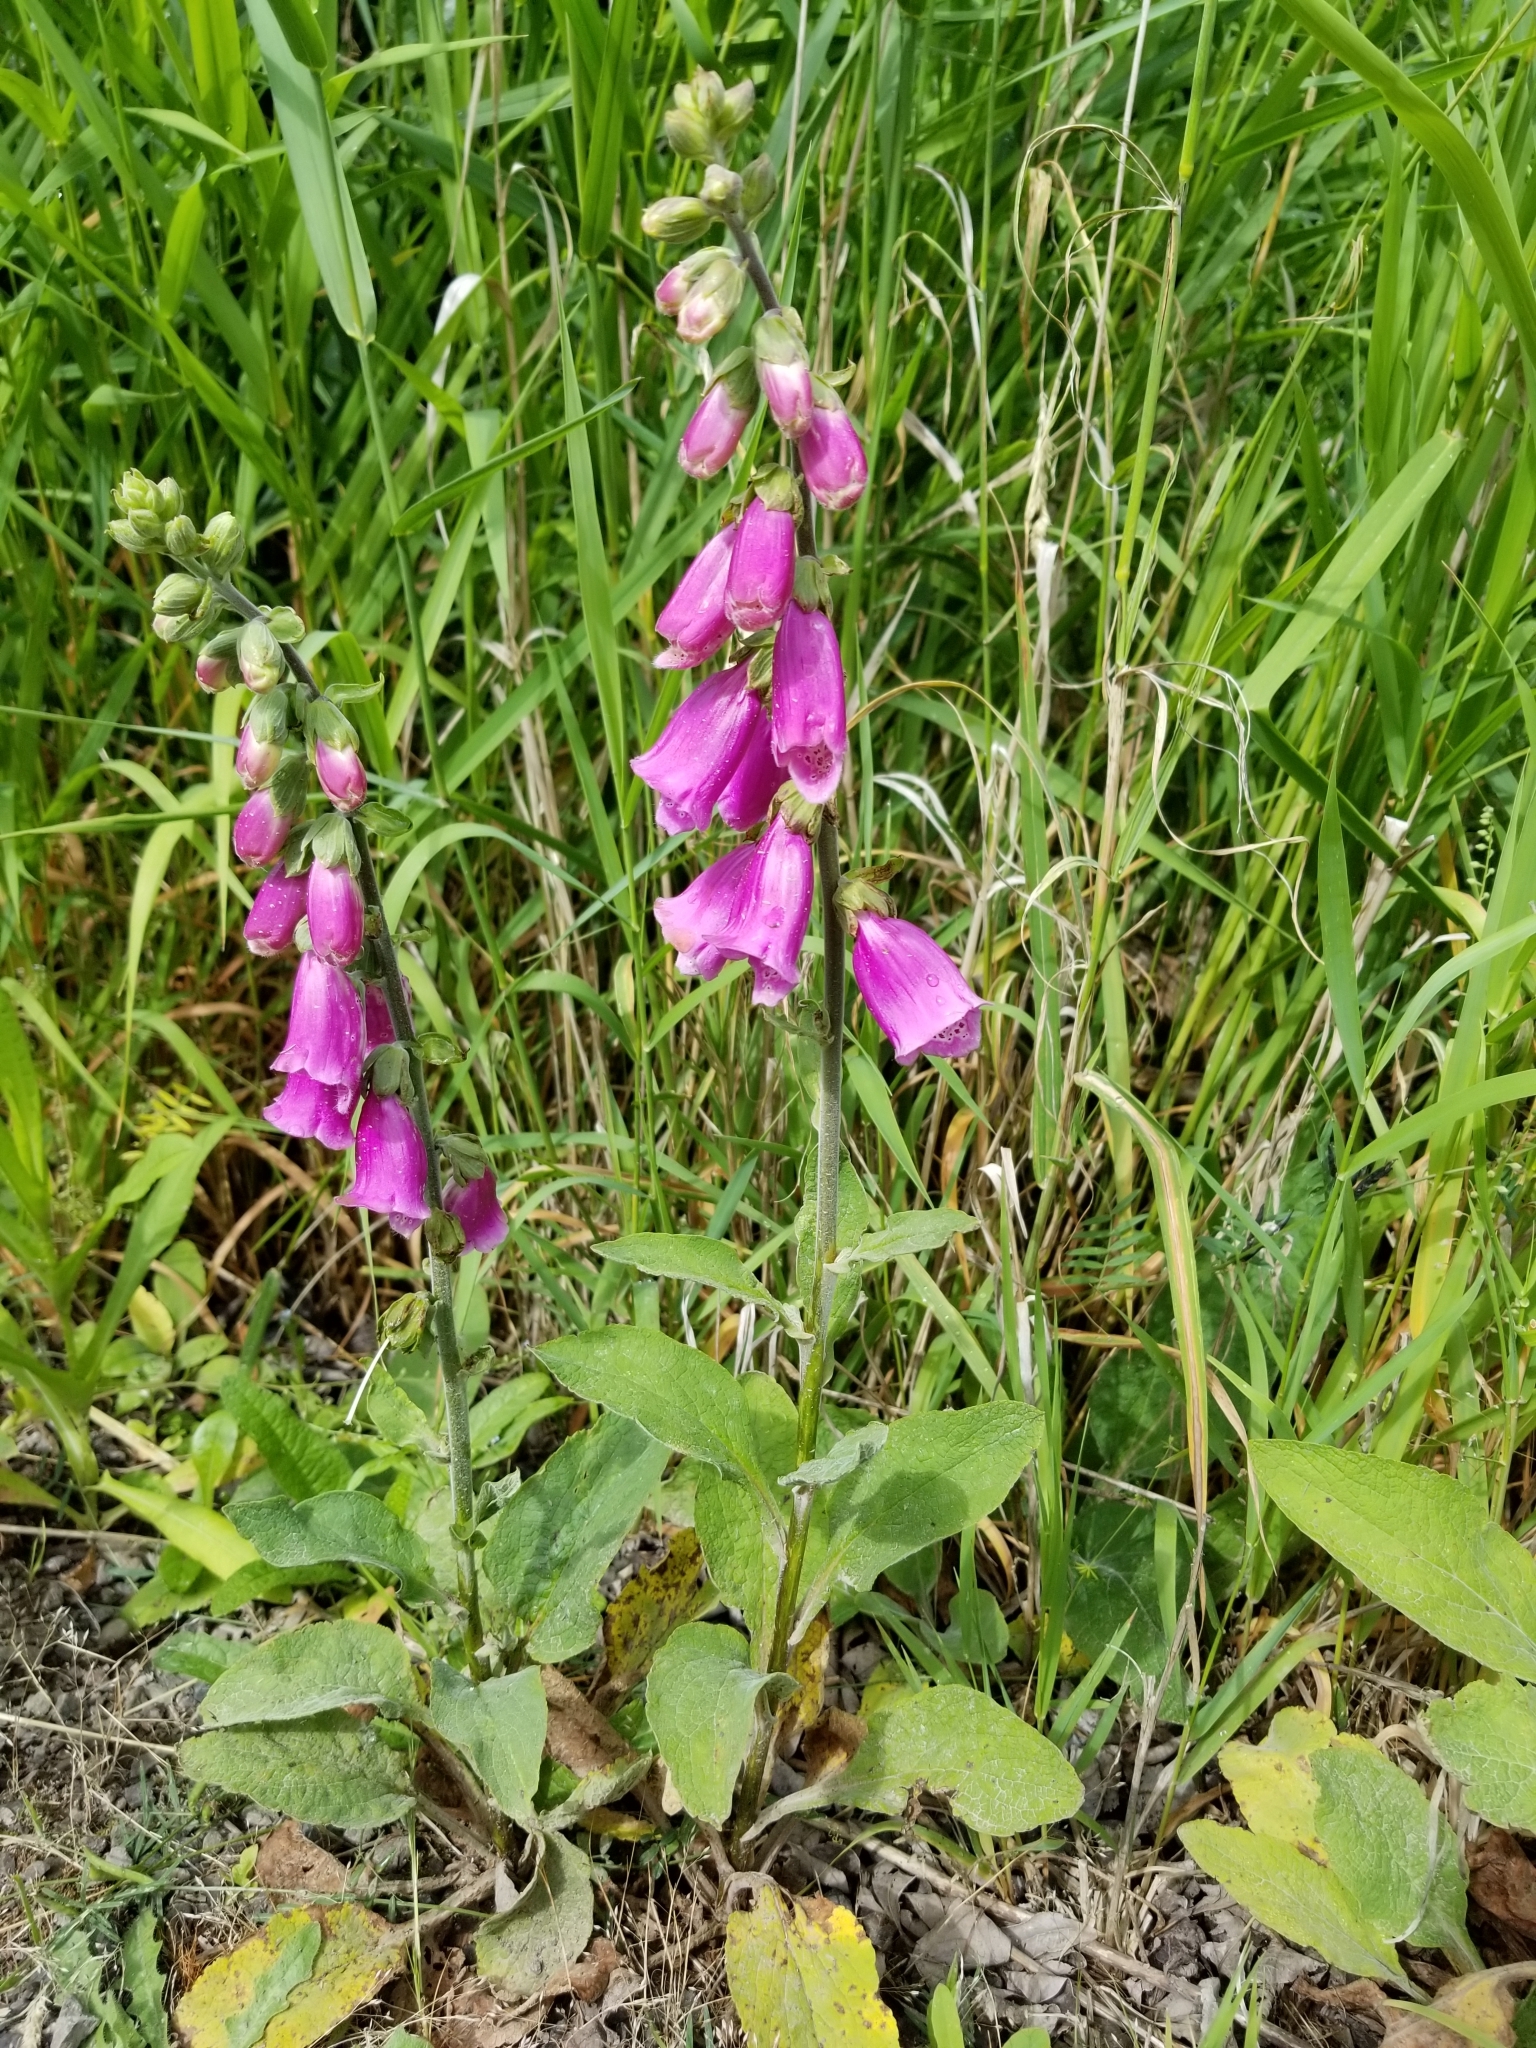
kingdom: Plantae
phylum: Tracheophyta
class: Magnoliopsida
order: Lamiales
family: Plantaginaceae
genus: Digitalis
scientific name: Digitalis purpurea
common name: Foxglove
